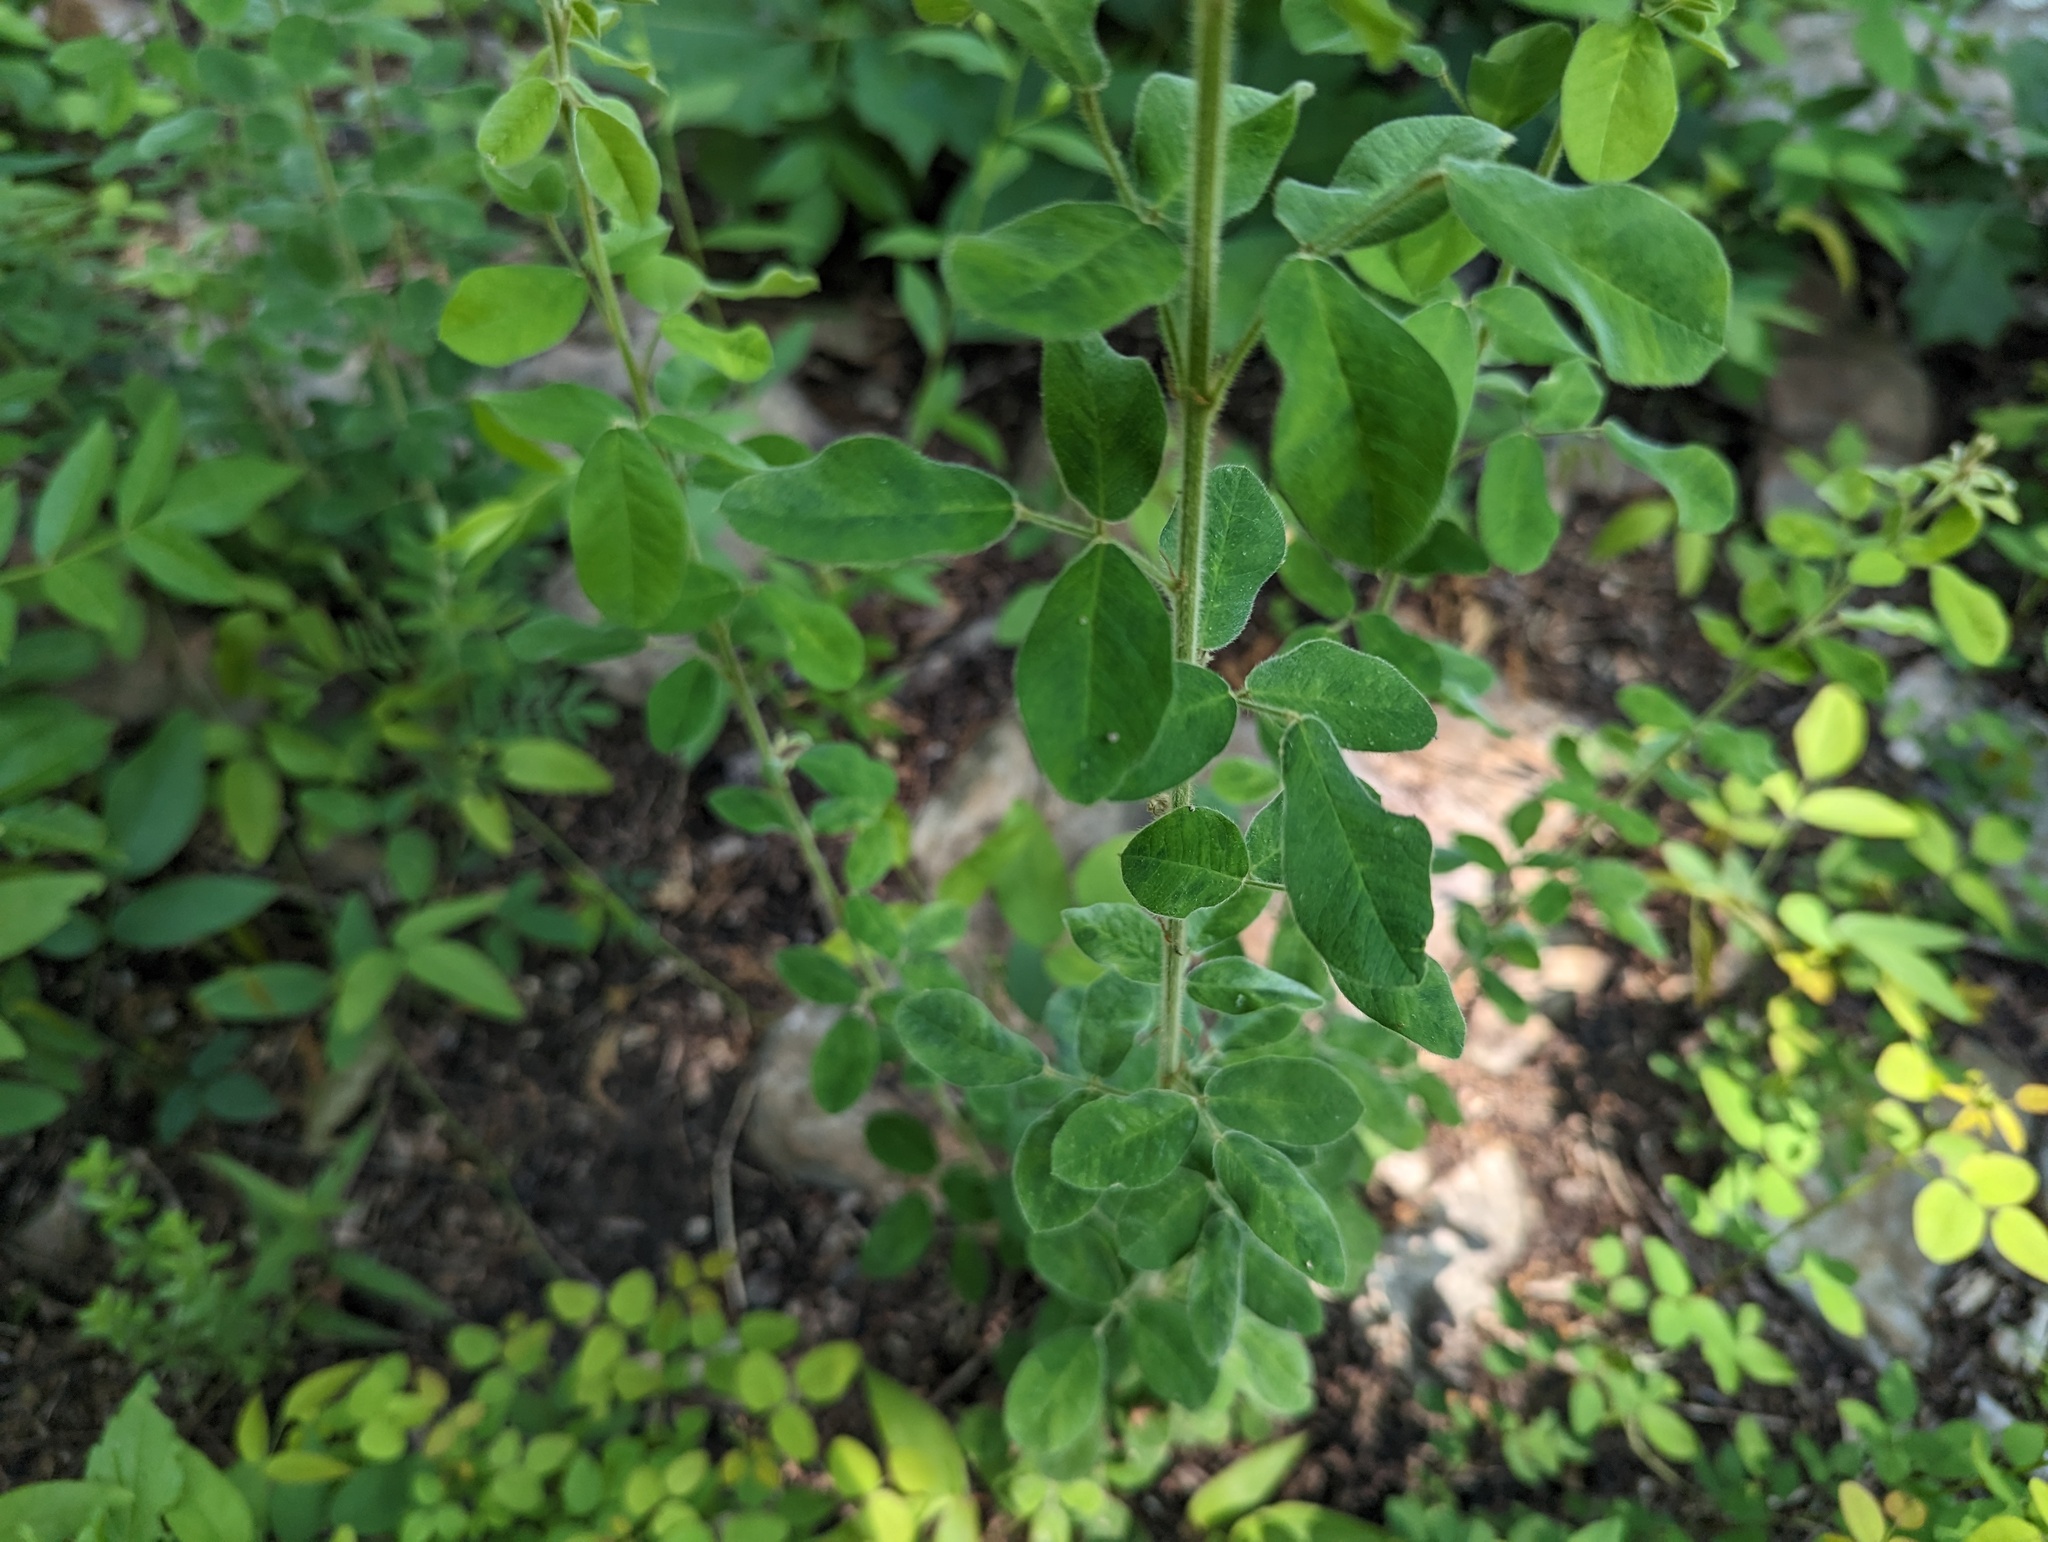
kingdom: Plantae
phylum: Tracheophyta
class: Magnoliopsida
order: Fabales
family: Fabaceae
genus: Lespedeza
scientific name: Lespedeza hirta
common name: Hairy lespedeza
